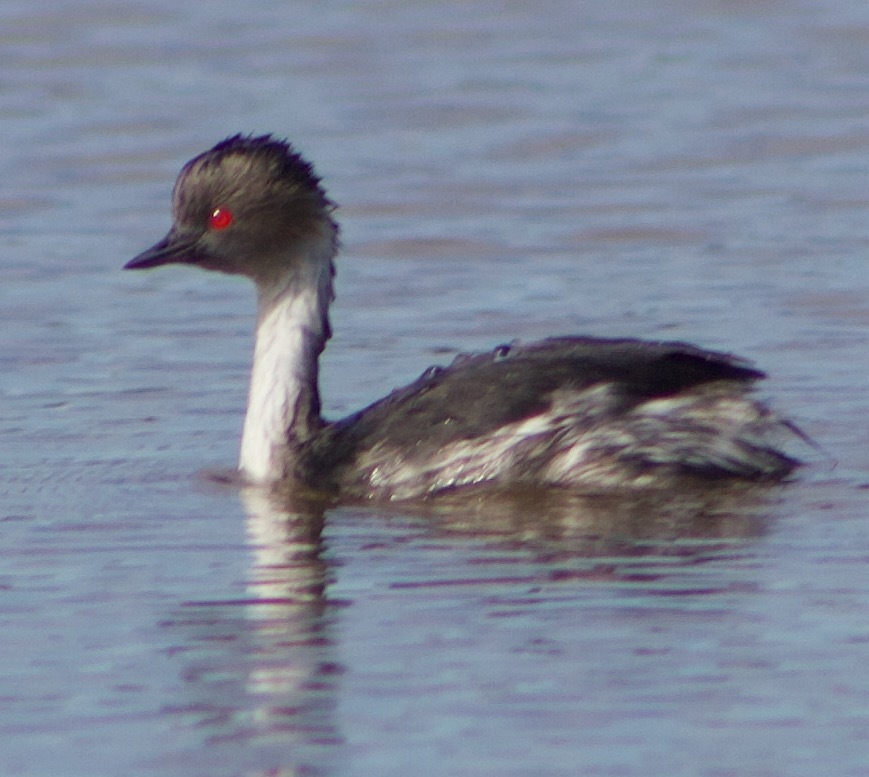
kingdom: Animalia
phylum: Chordata
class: Aves
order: Podicipediformes
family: Podicipedidae
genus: Podiceps
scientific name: Podiceps occipitalis
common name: Silvery grebe
